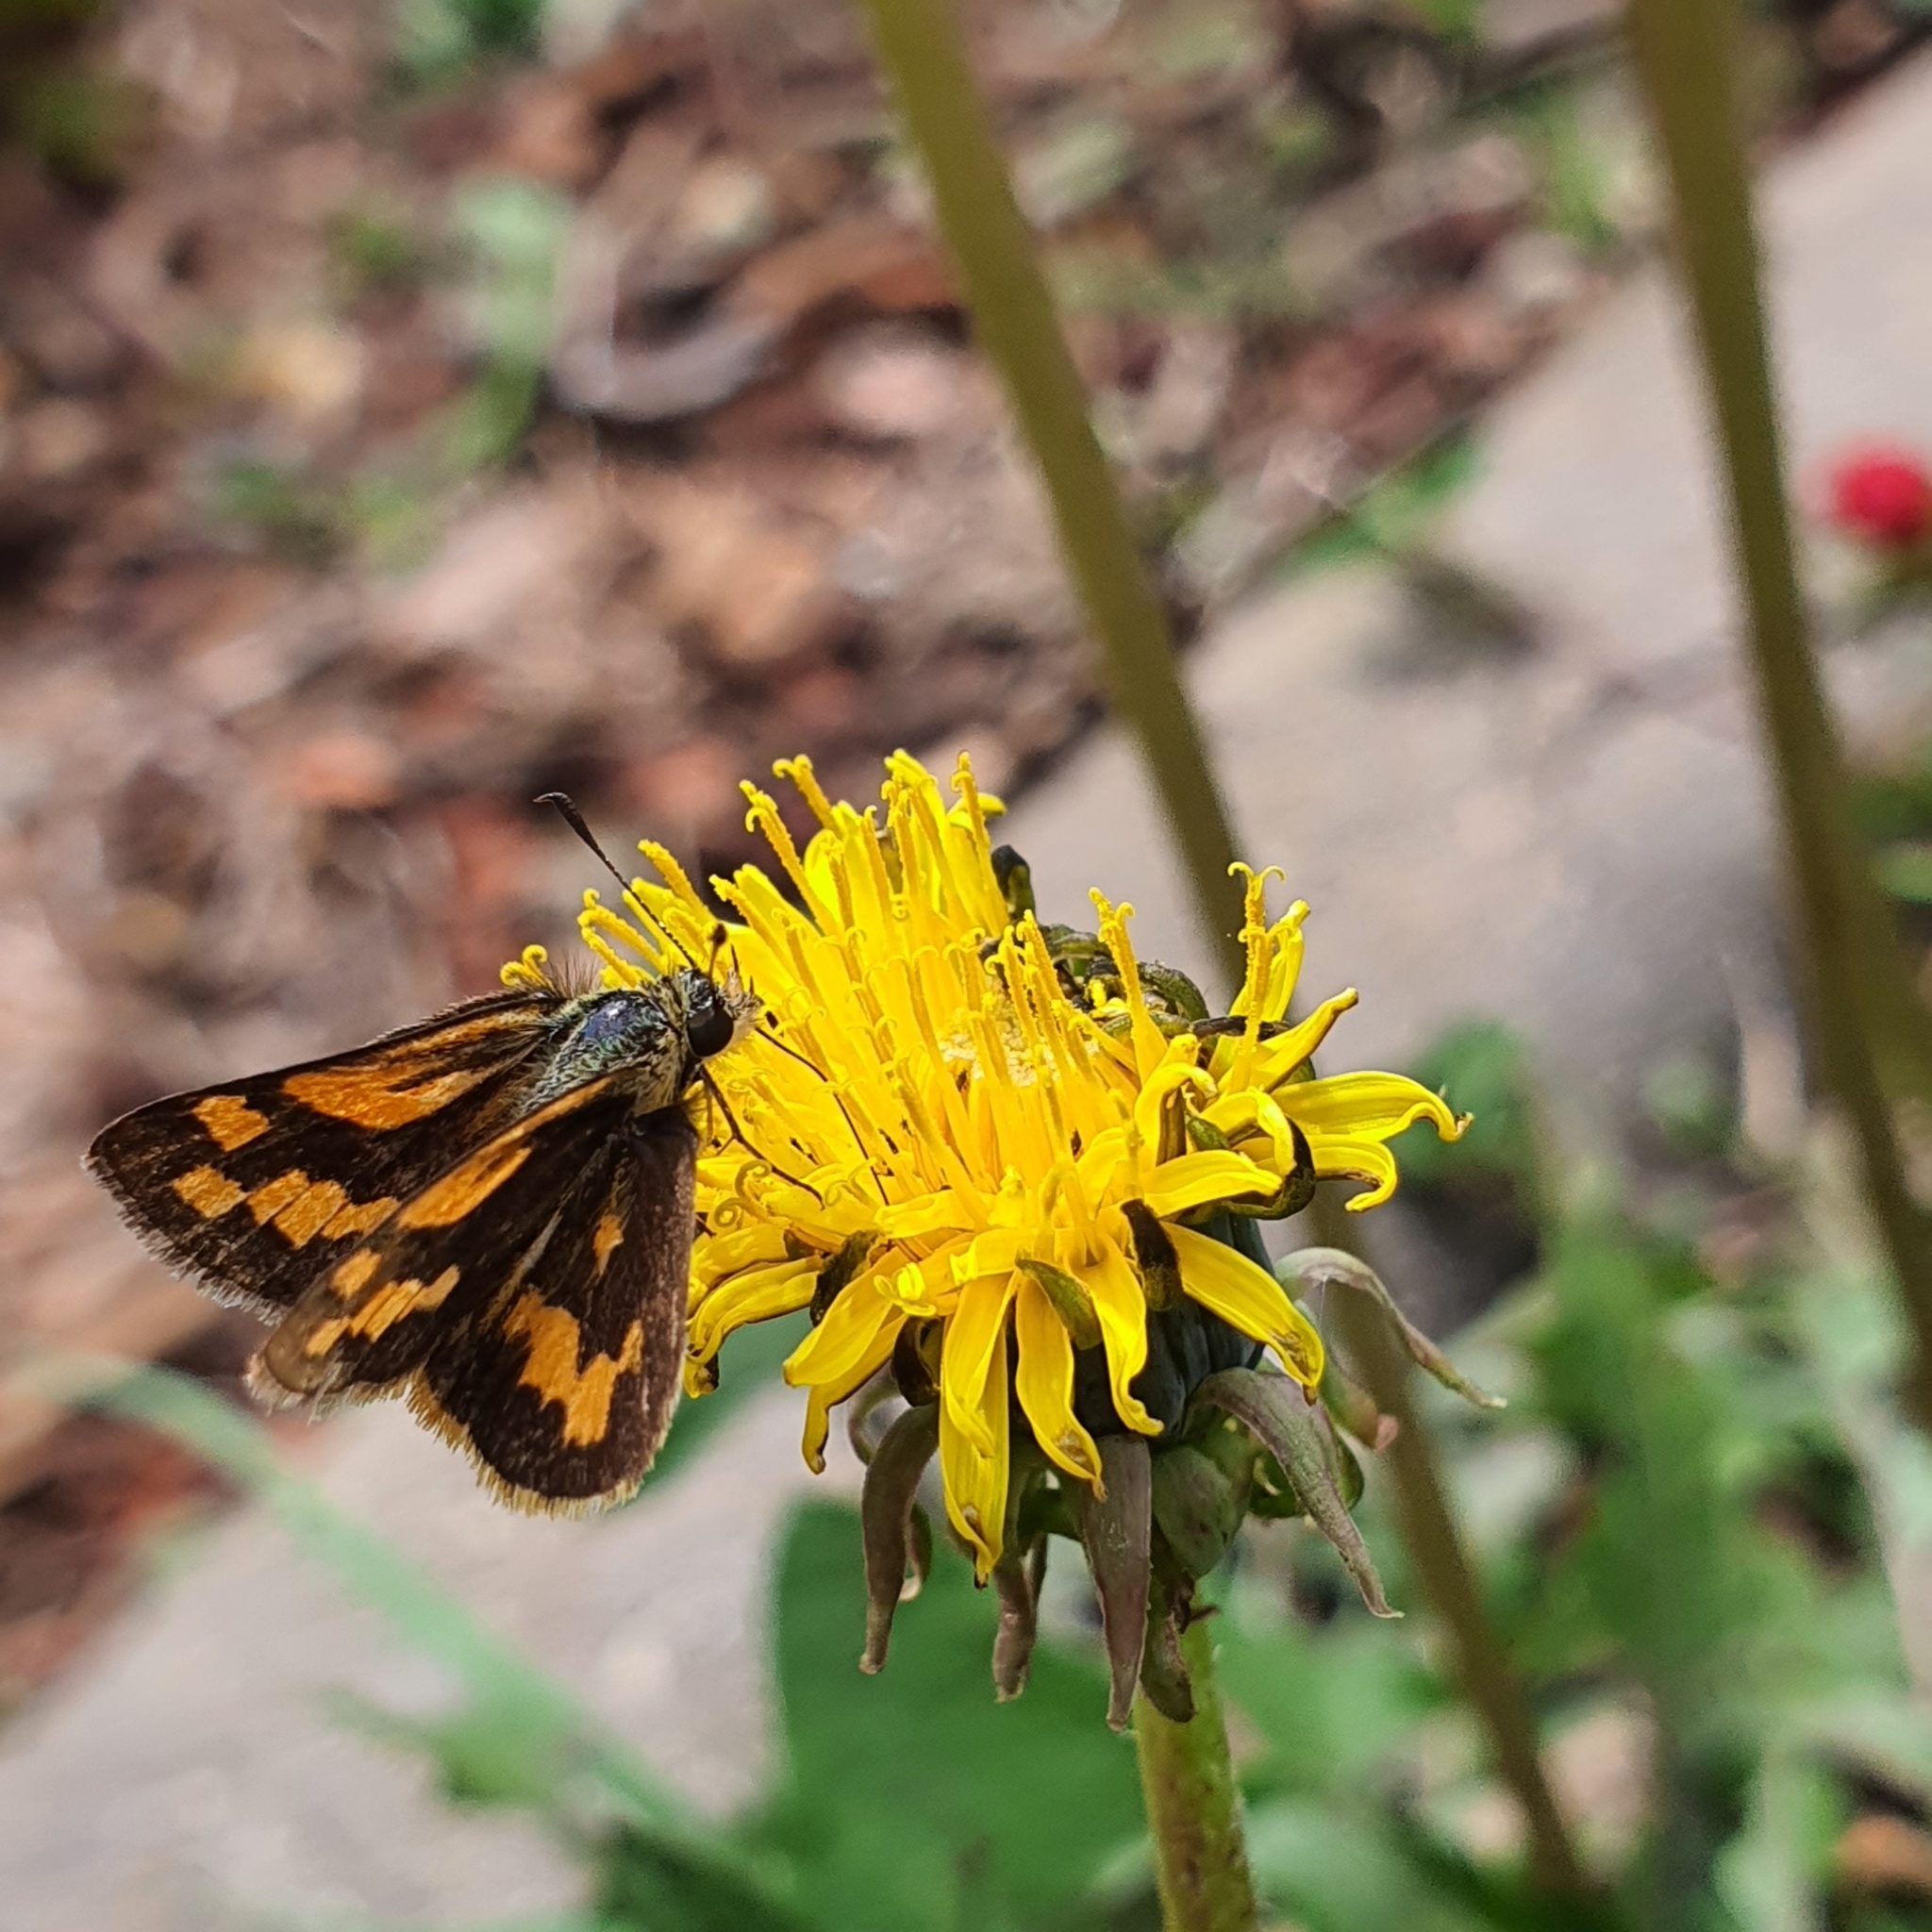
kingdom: Animalia
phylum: Arthropoda
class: Insecta
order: Lepidoptera
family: Hesperiidae
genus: Ocybadistes
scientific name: Ocybadistes walkeri
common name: Yellow-banded dart
